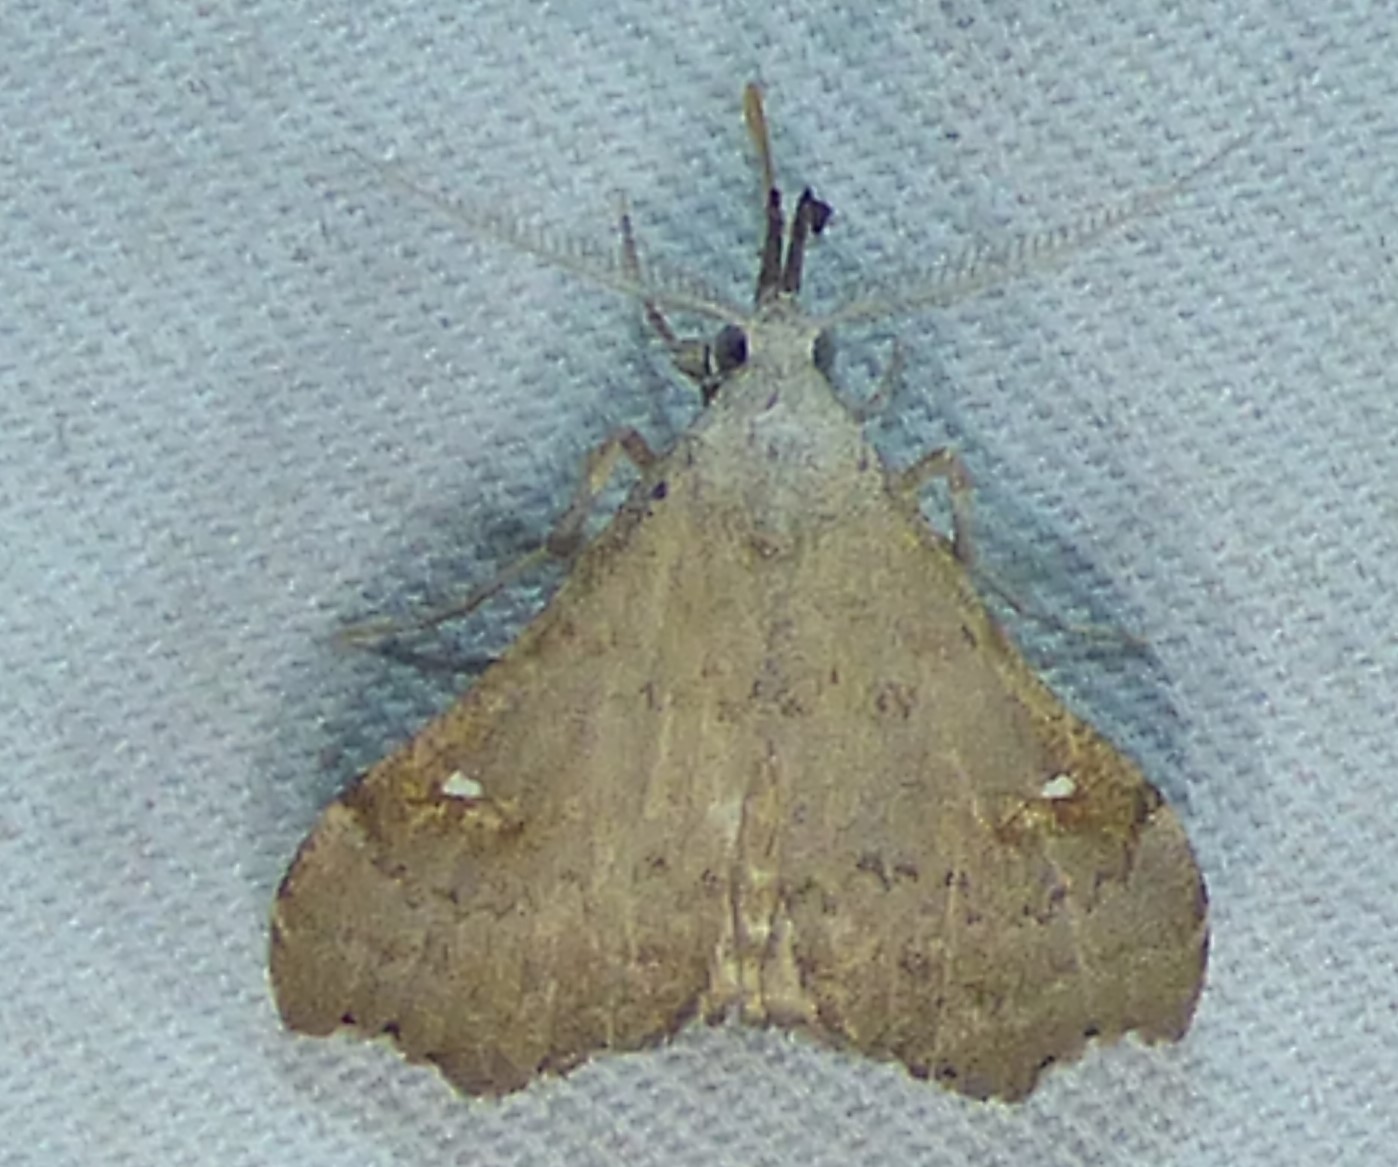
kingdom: Animalia
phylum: Arthropoda
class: Insecta
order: Lepidoptera
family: Erebidae
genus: Redectis
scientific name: Redectis vitrea
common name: White-spotted redectis
